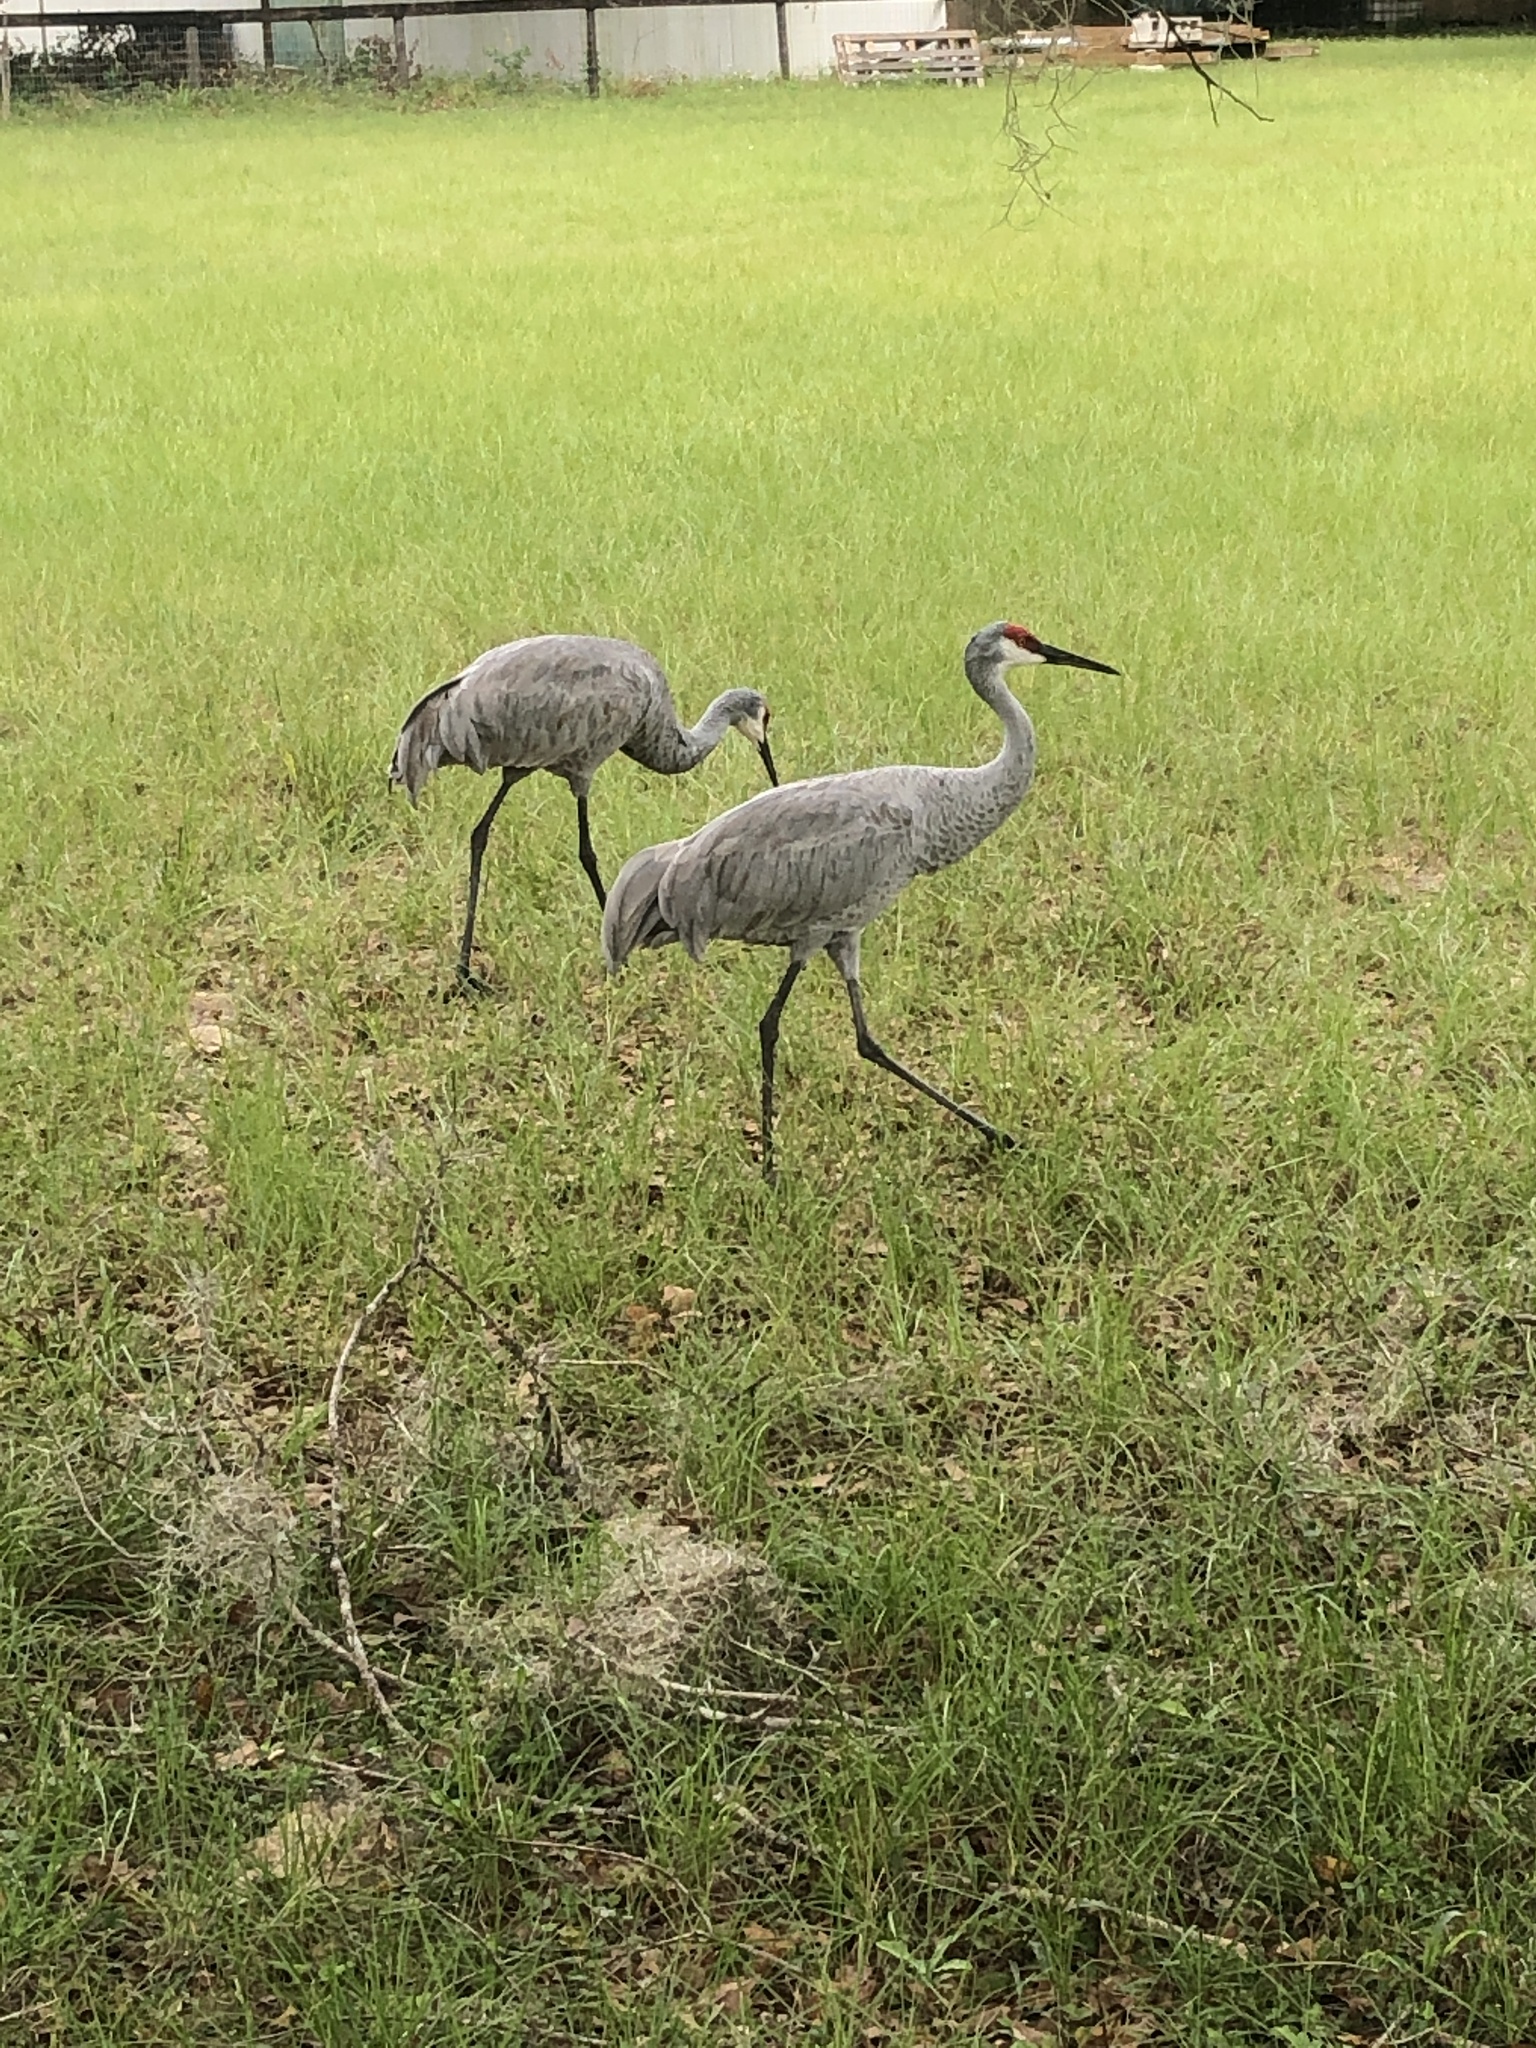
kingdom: Animalia
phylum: Chordata
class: Aves
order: Gruiformes
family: Gruidae
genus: Grus
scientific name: Grus canadensis
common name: Sandhill crane
